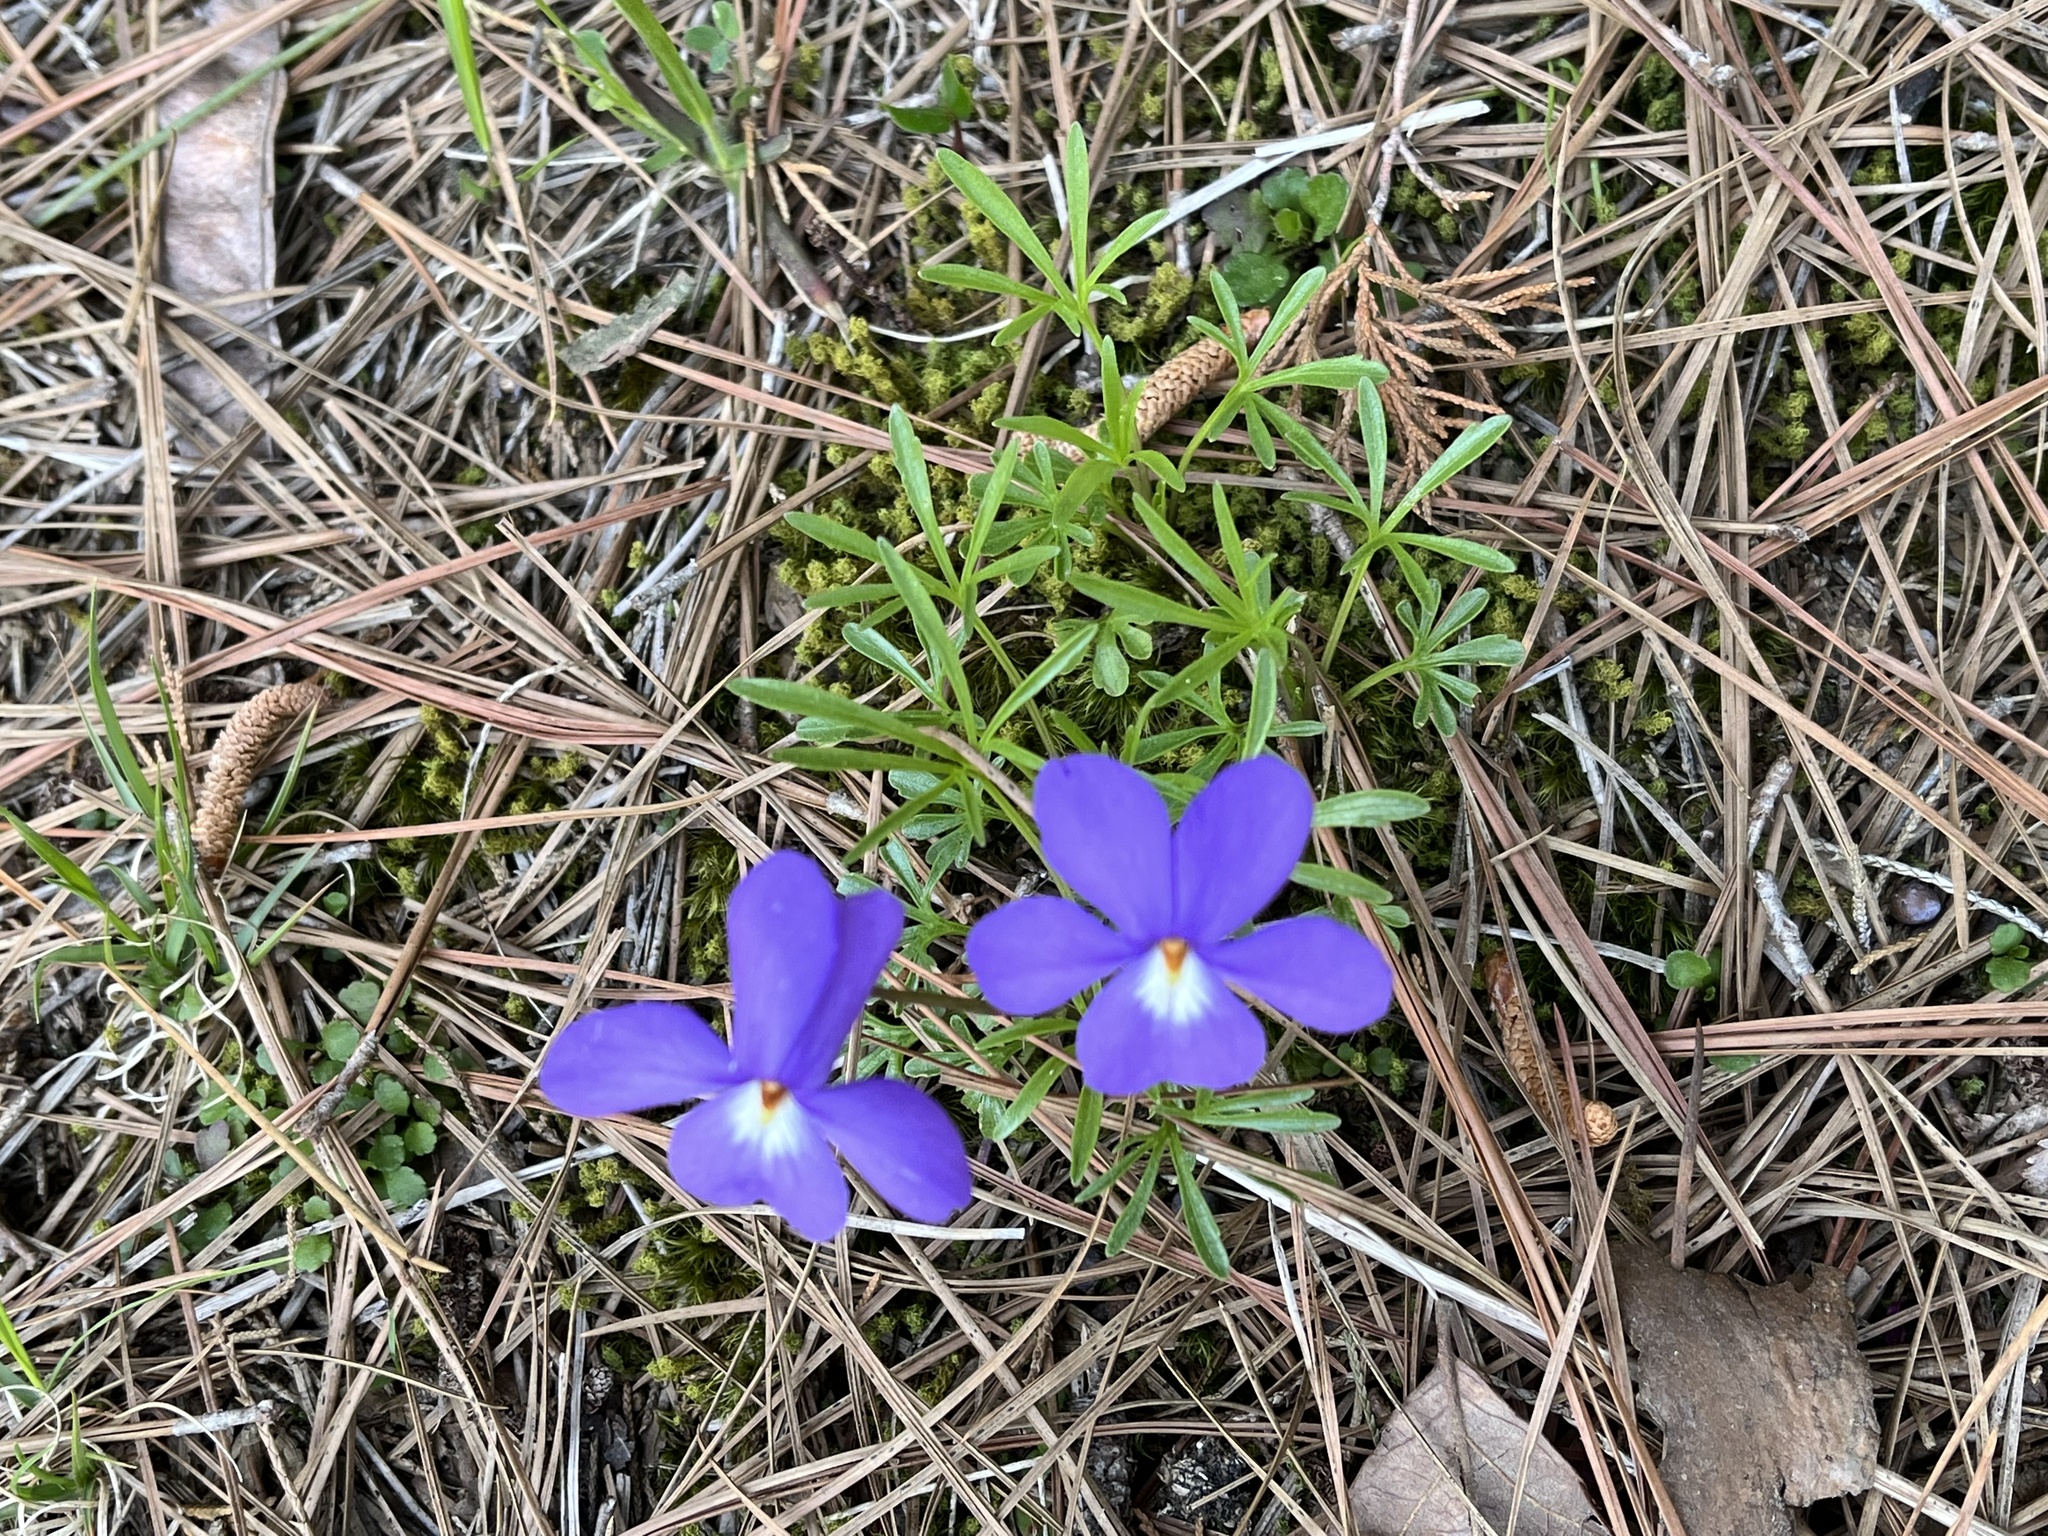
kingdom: Plantae
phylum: Tracheophyta
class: Magnoliopsida
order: Malpighiales
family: Violaceae
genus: Viola
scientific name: Viola pedata
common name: Pansy violet
